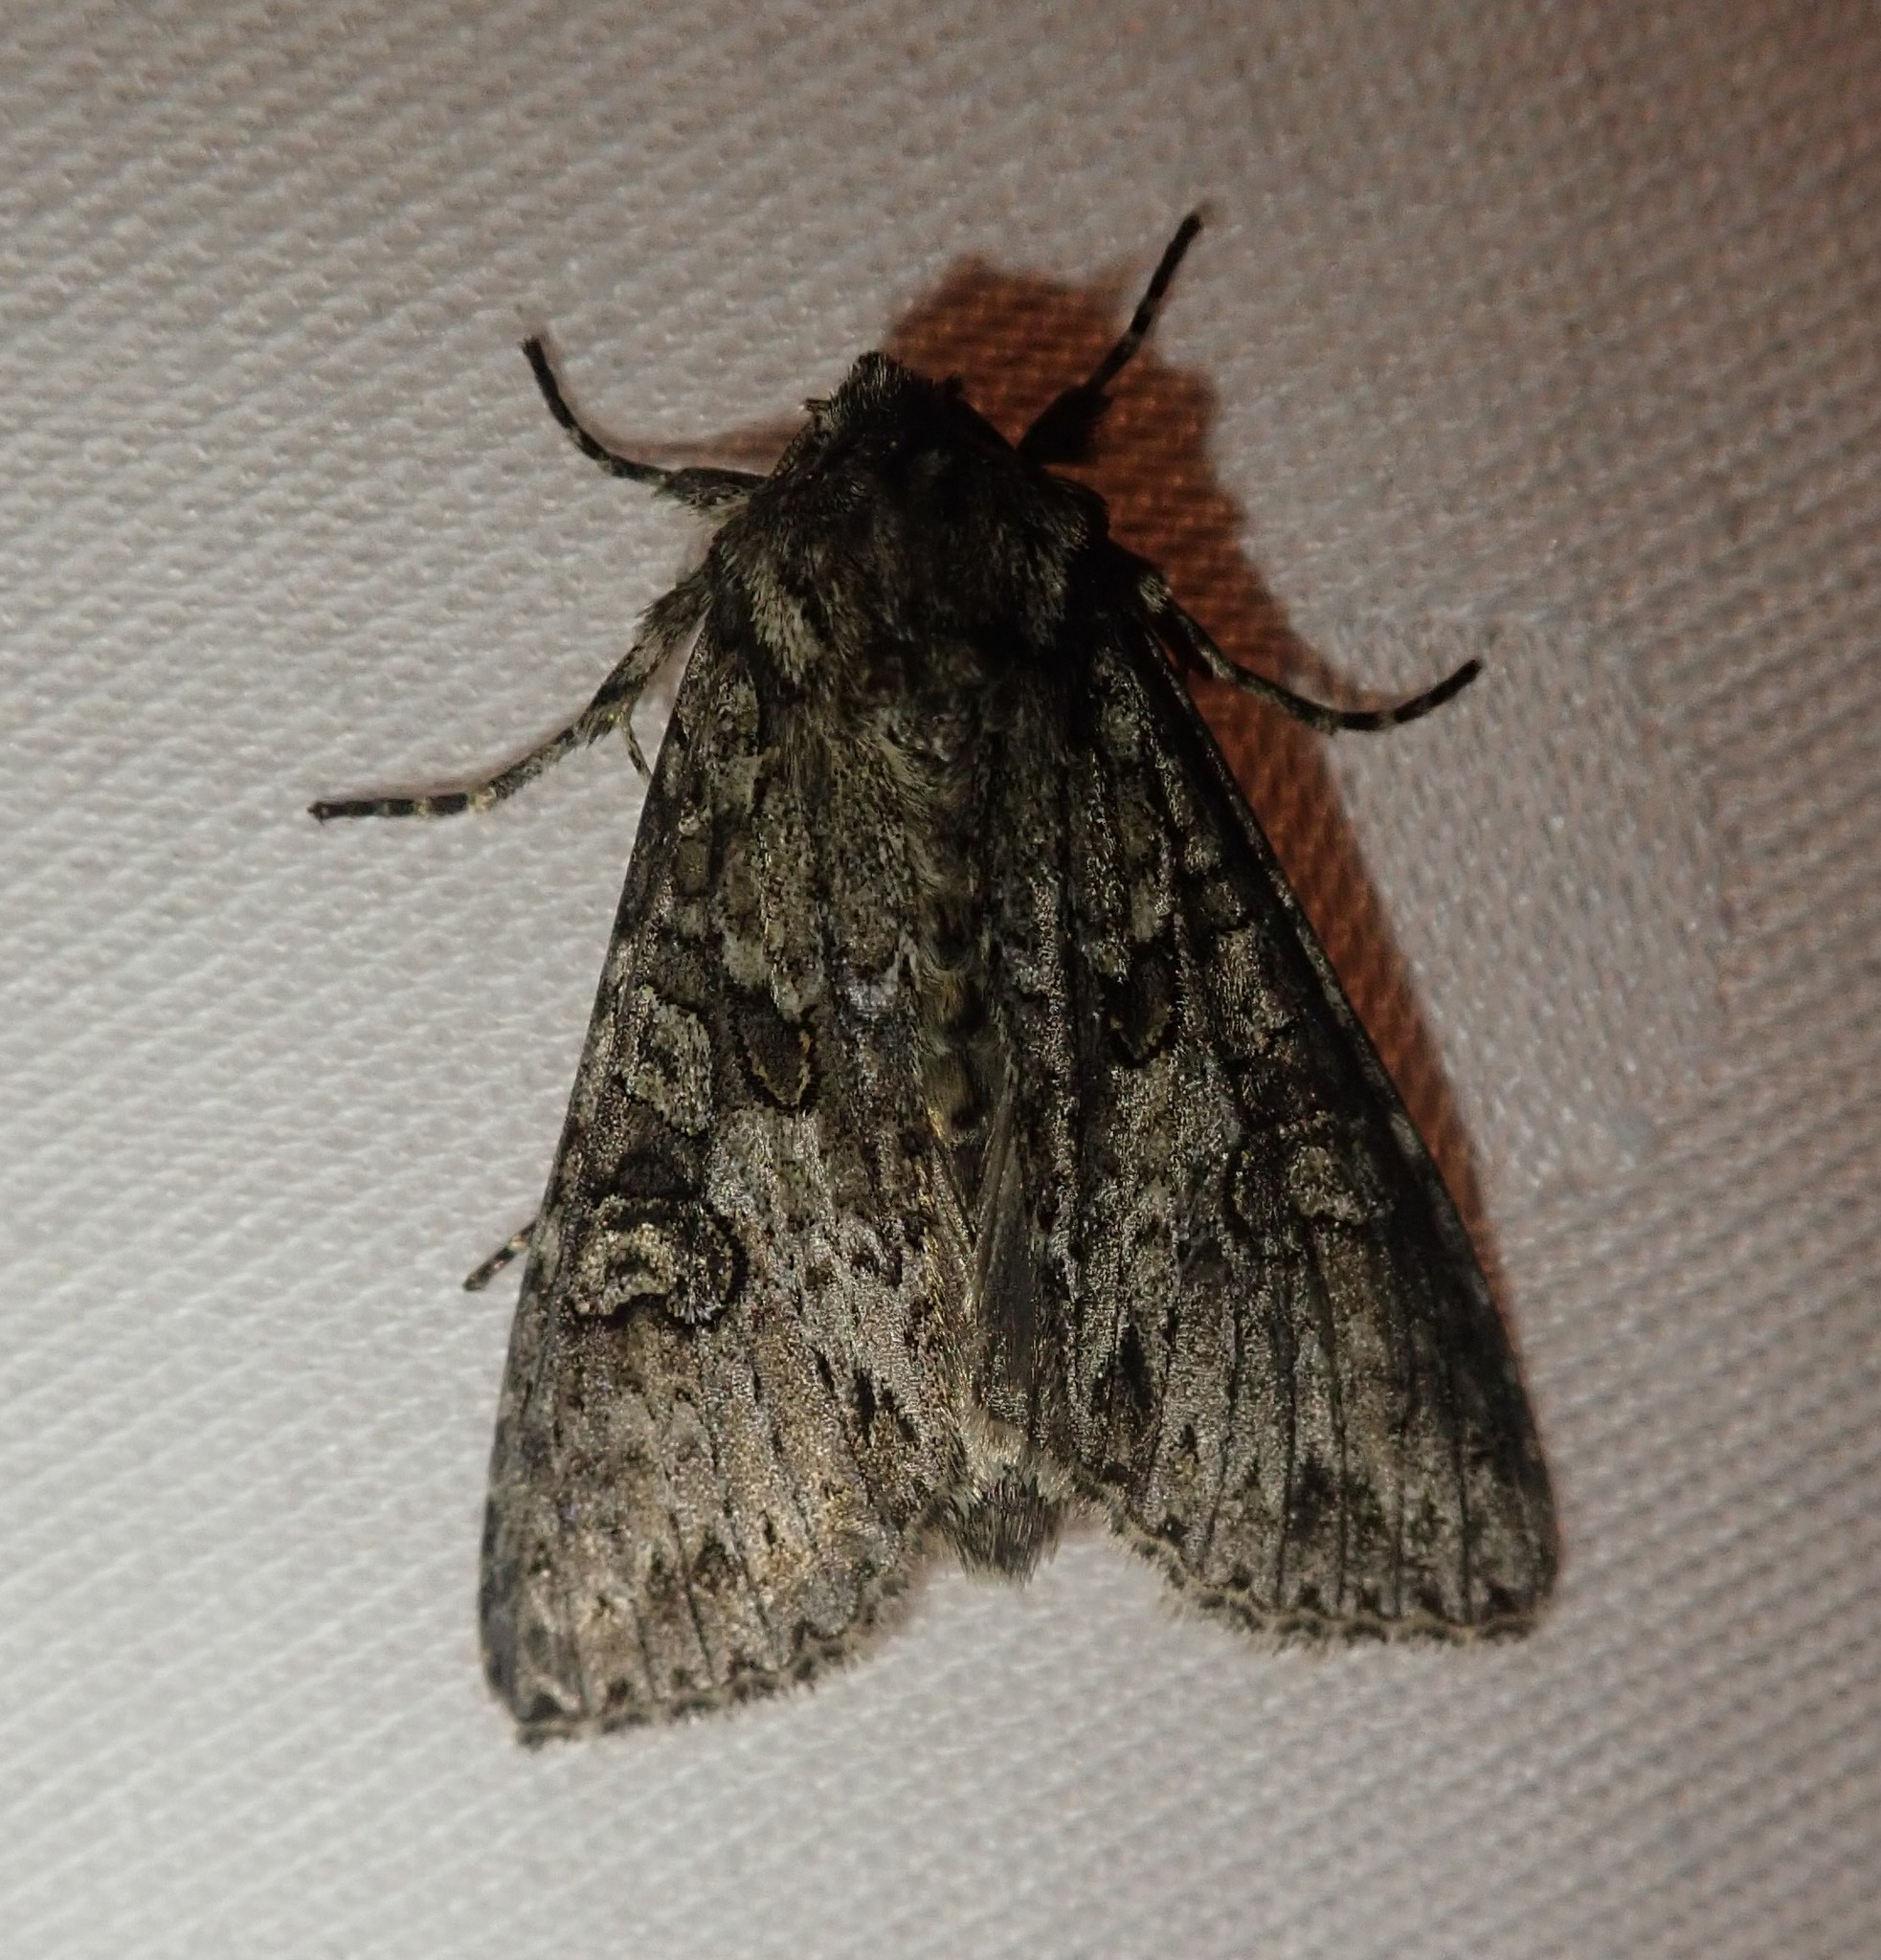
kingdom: Animalia
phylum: Arthropoda
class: Insecta
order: Lepidoptera
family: Noctuidae
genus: Polia
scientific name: Polia nebulosa
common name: Grey arches
